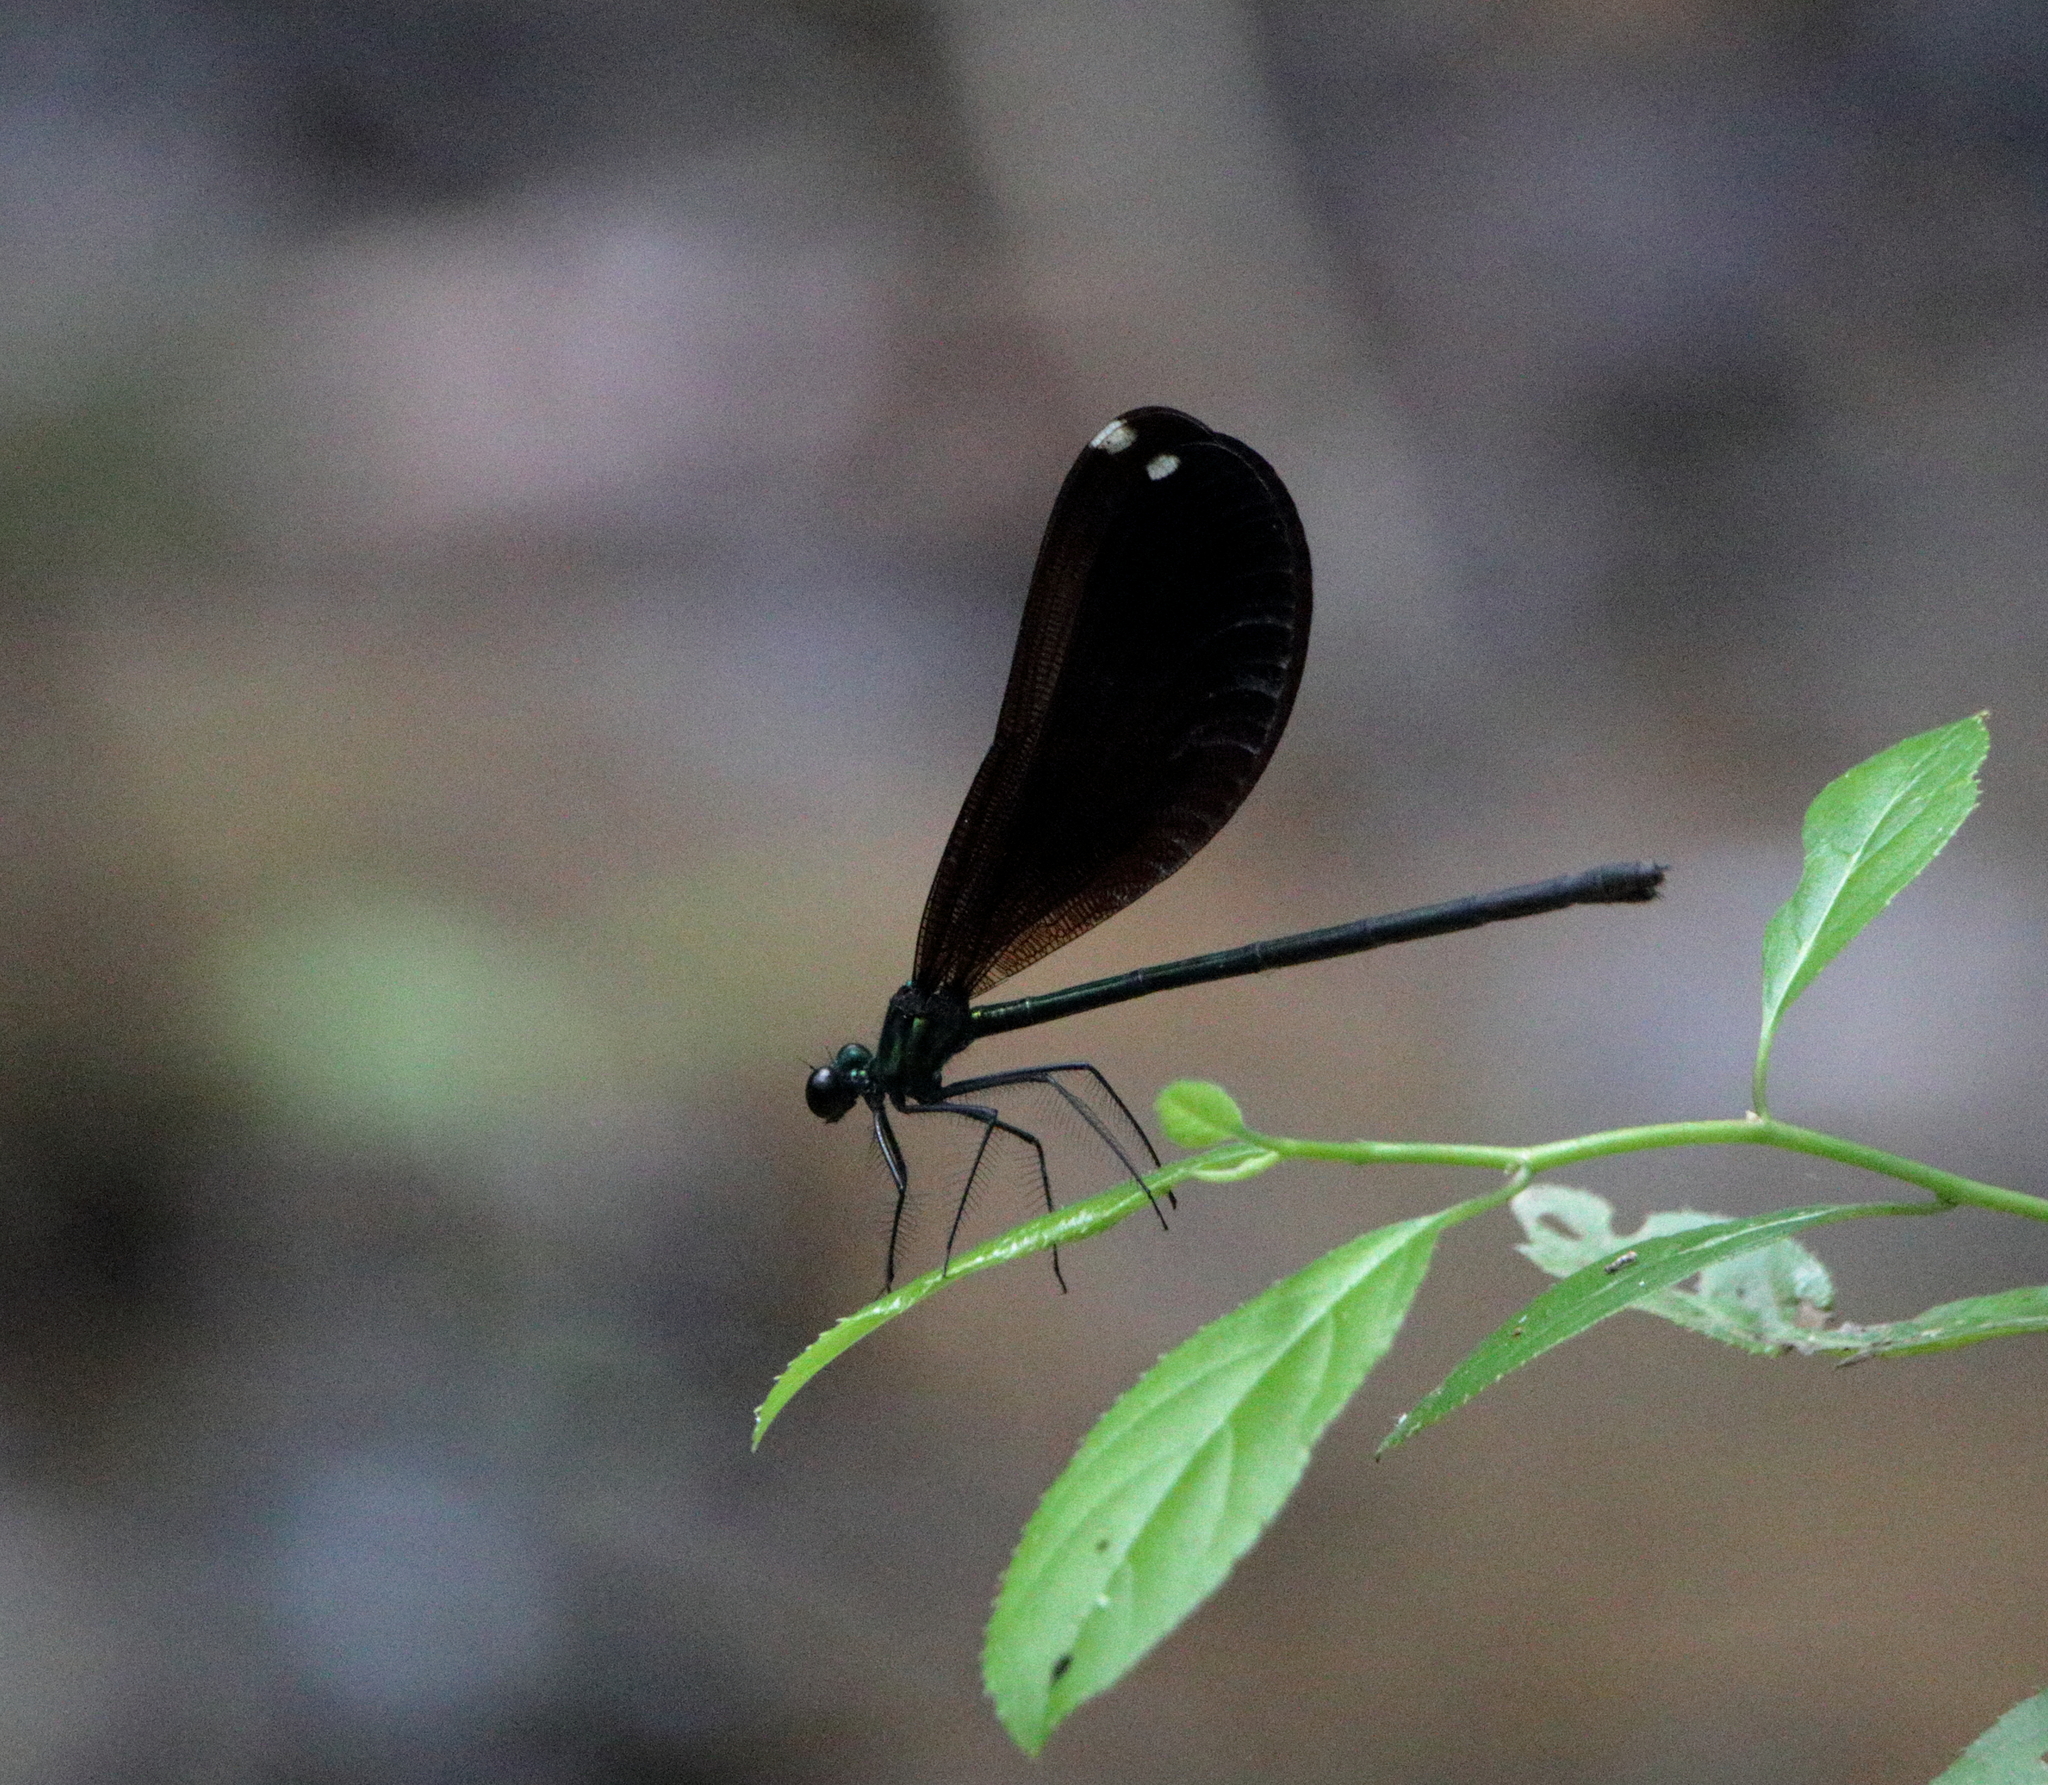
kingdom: Animalia
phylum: Arthropoda
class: Insecta
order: Odonata
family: Calopterygidae
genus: Calopteryx
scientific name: Calopteryx maculata
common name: Ebony jewelwing
